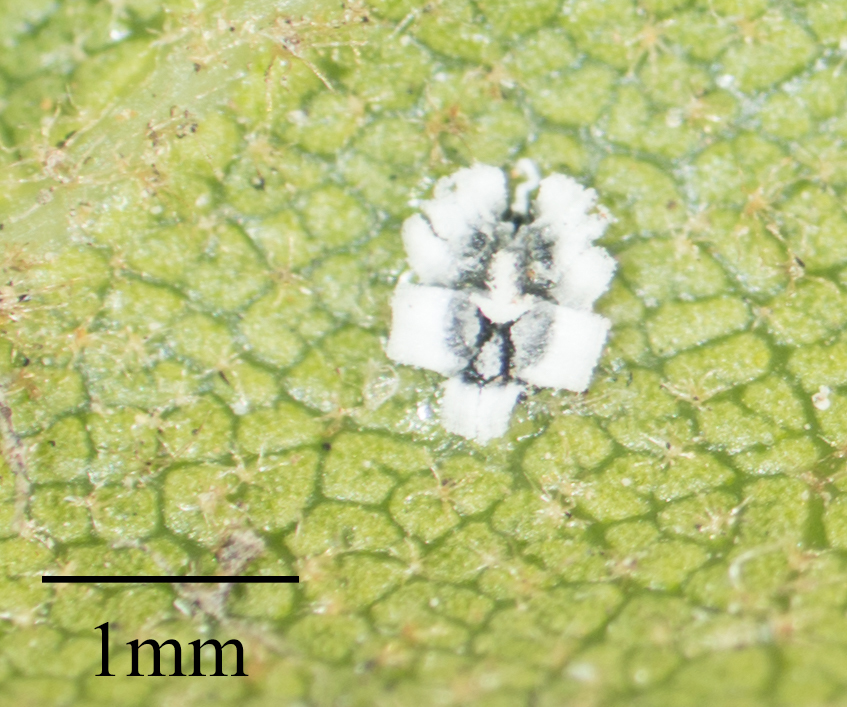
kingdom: Animalia
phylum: Arthropoda
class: Insecta
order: Hemiptera
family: Aleyrodidae
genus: Aleuroplatus
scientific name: Aleuroplatus coronata
